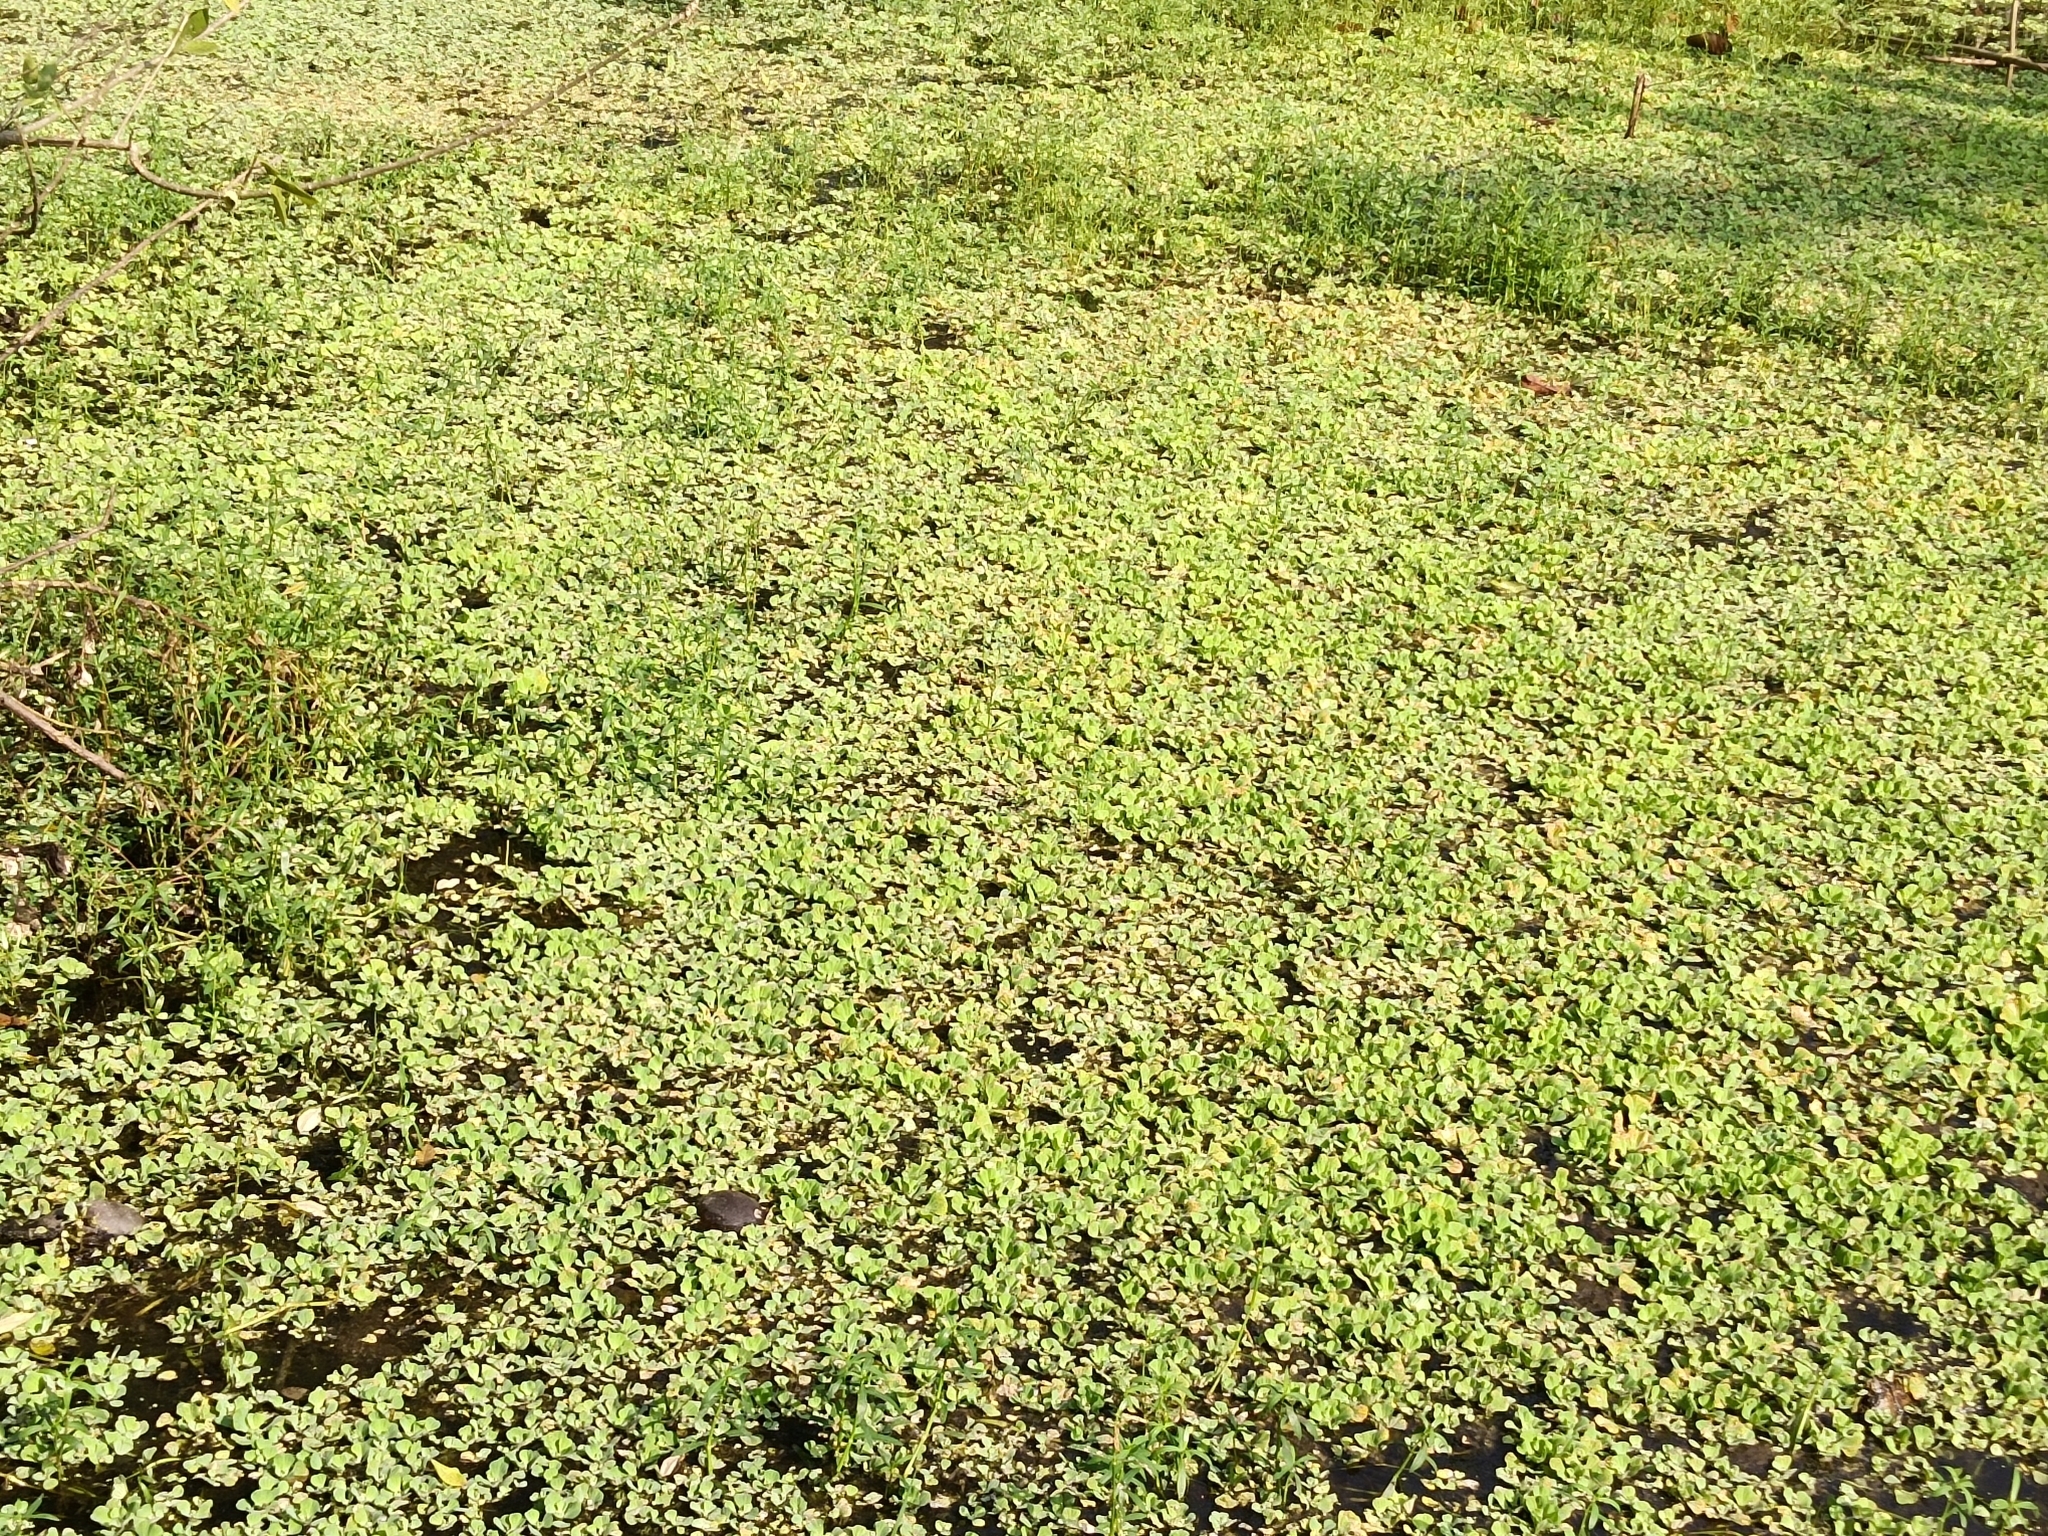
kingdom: Plantae
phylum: Tracheophyta
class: Liliopsida
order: Alismatales
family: Araceae
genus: Pistia
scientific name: Pistia stratiotes
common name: Water lettuce
